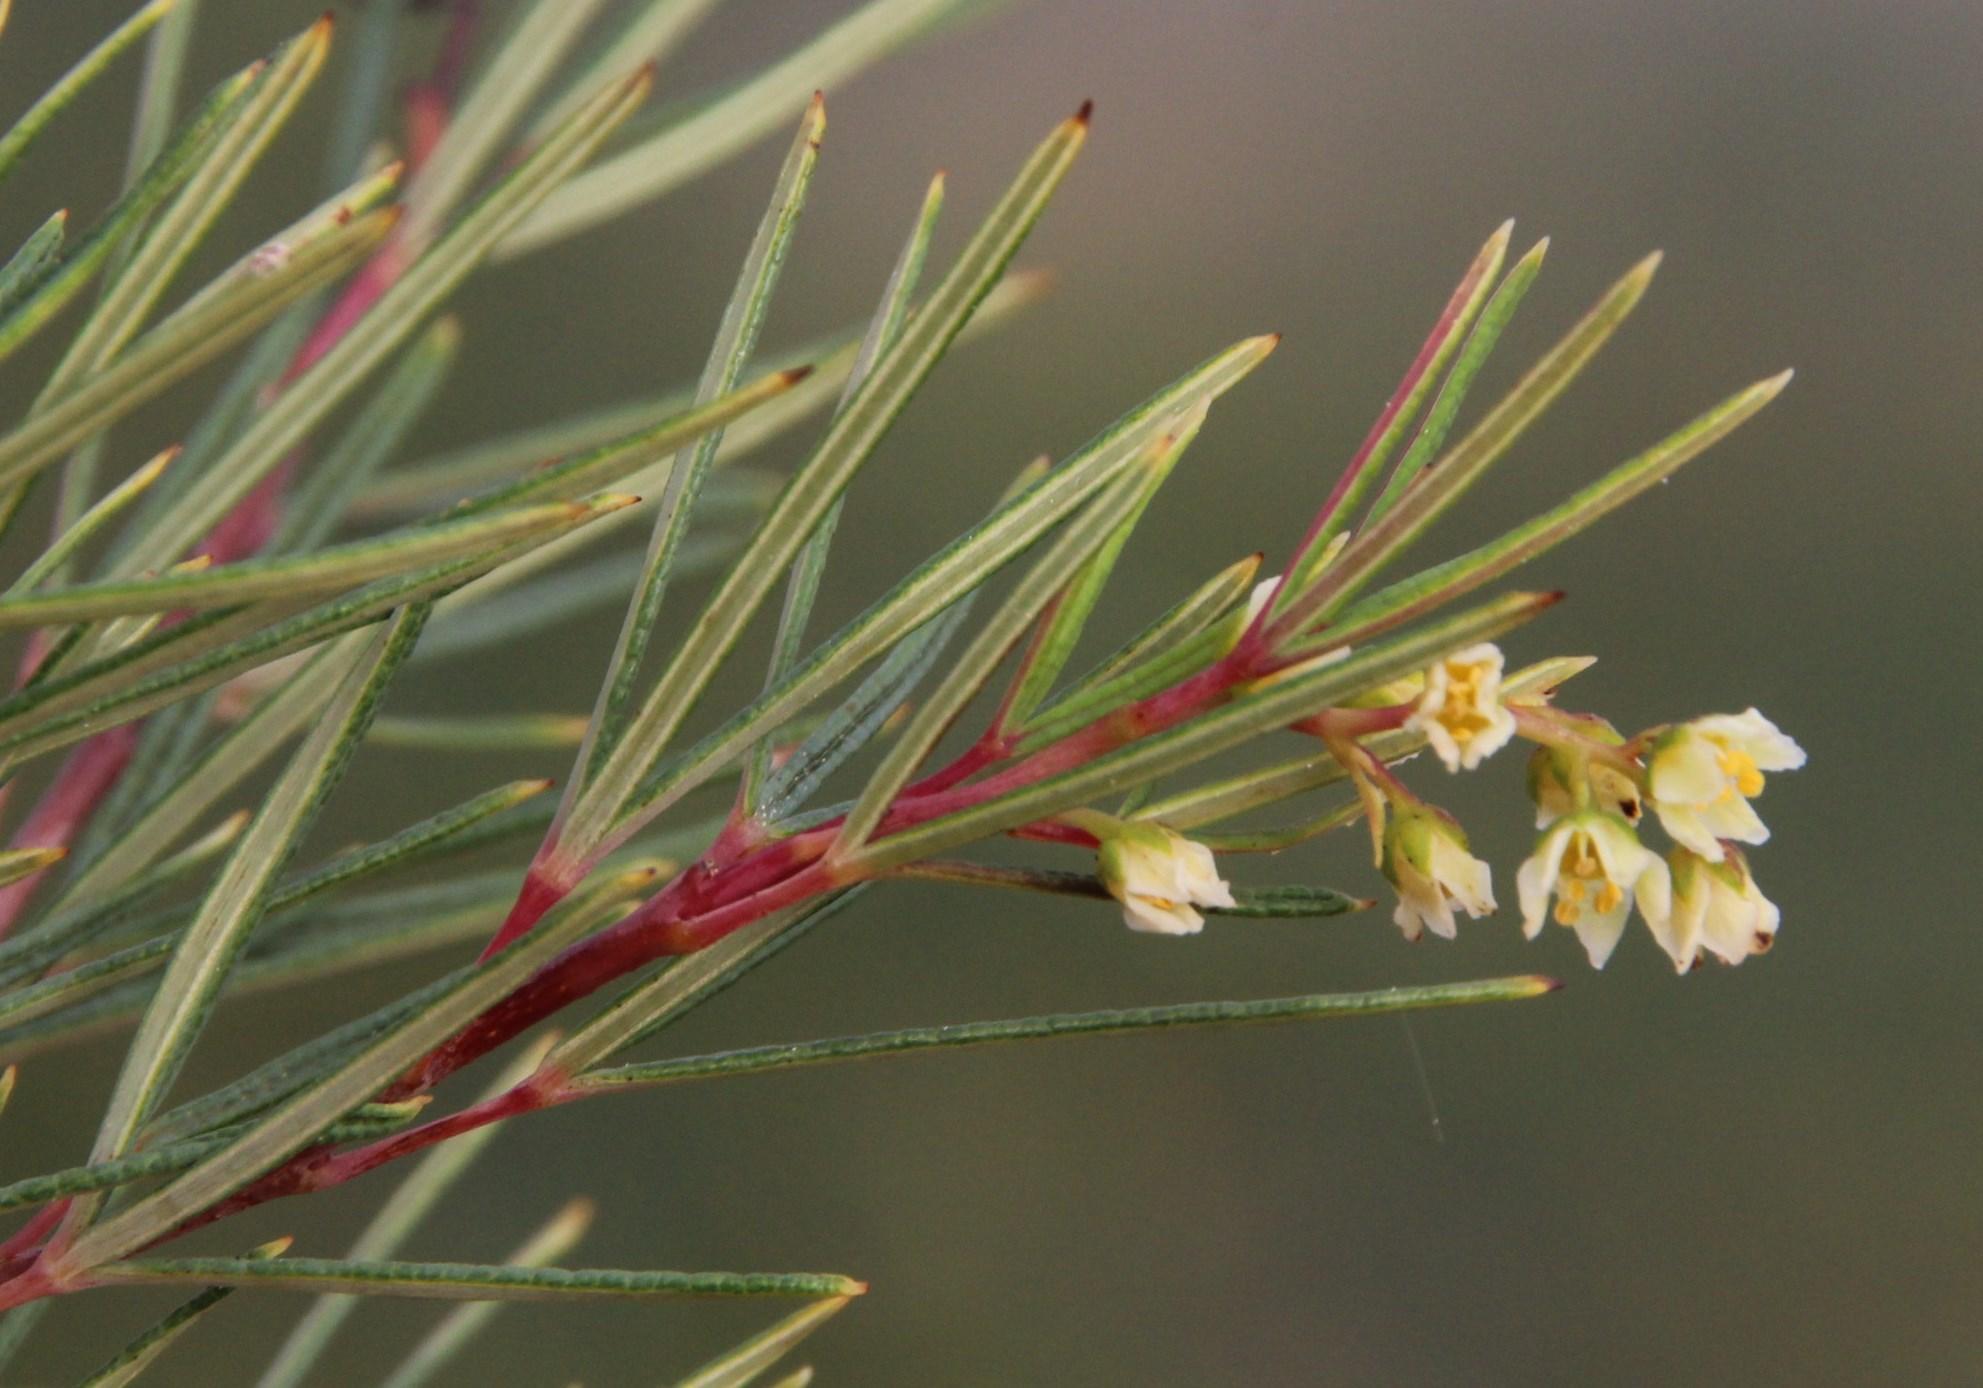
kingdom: Plantae
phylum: Tracheophyta
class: Magnoliopsida
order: Sapindales
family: Anacardiaceae
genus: Searsia
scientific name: Searsia rosmarinifolia
